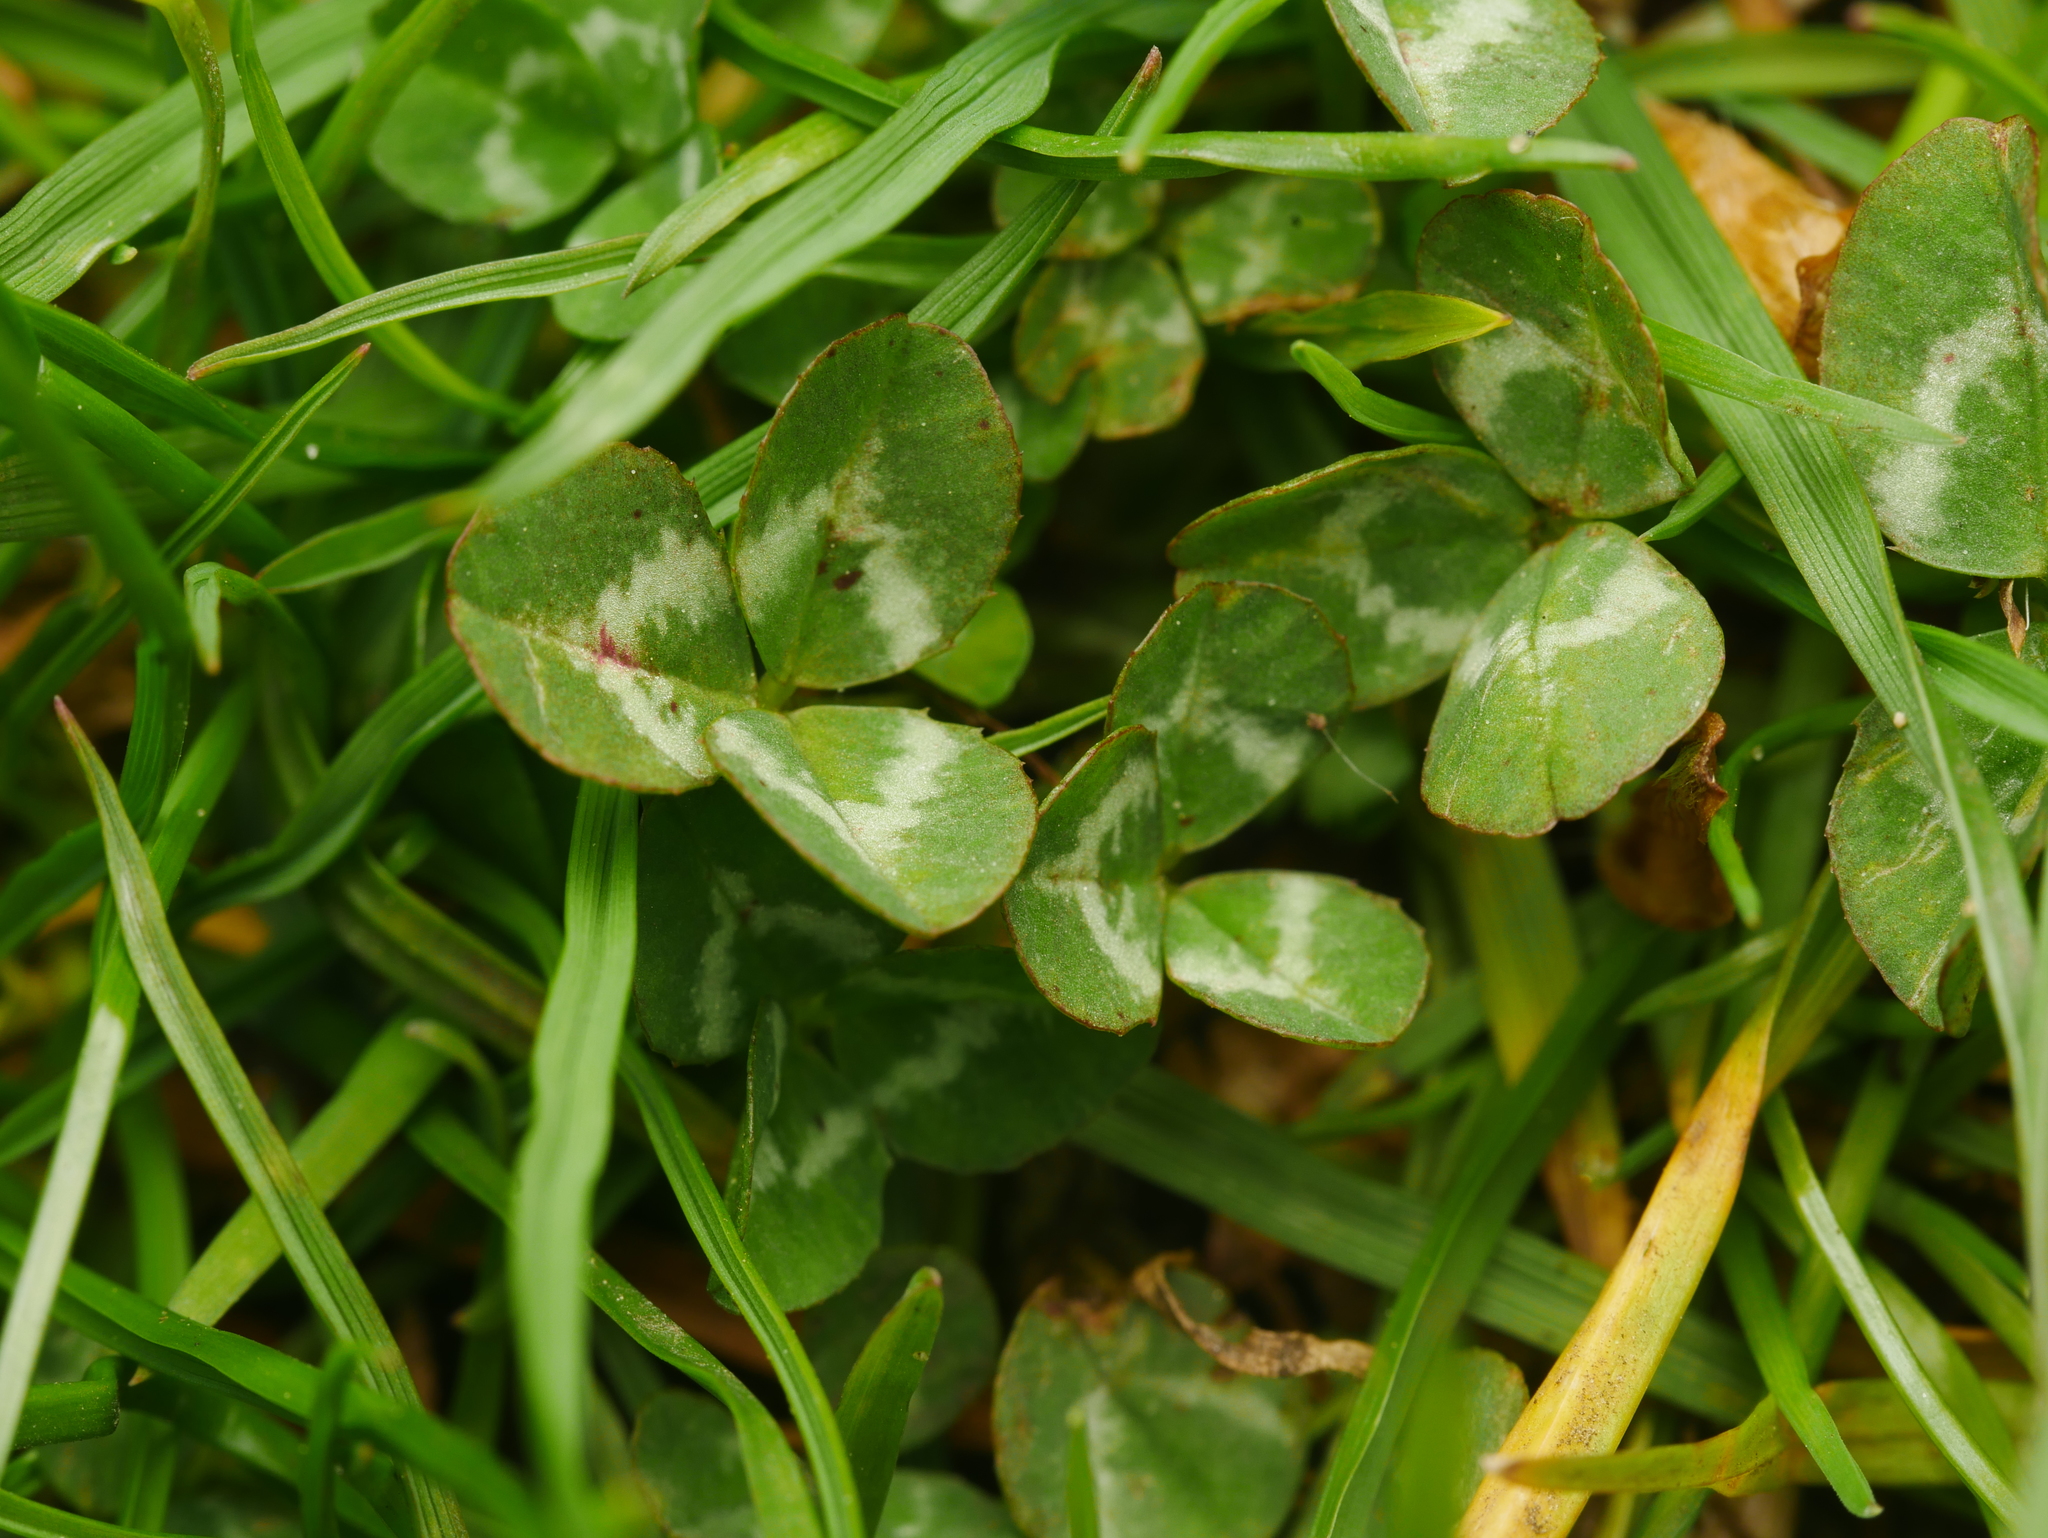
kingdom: Plantae
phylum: Tracheophyta
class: Magnoliopsida
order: Fabales
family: Fabaceae
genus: Trifolium
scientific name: Trifolium repens
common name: White clover
